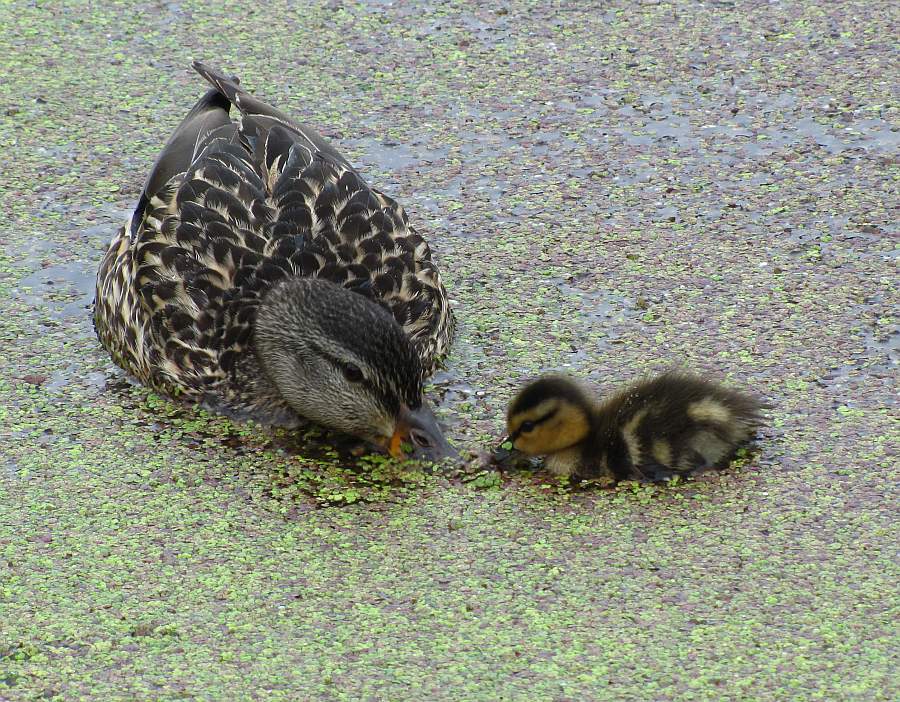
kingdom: Animalia
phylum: Chordata
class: Aves
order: Anseriformes
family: Anatidae
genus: Anas
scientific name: Anas platyrhynchos
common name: Mallard
